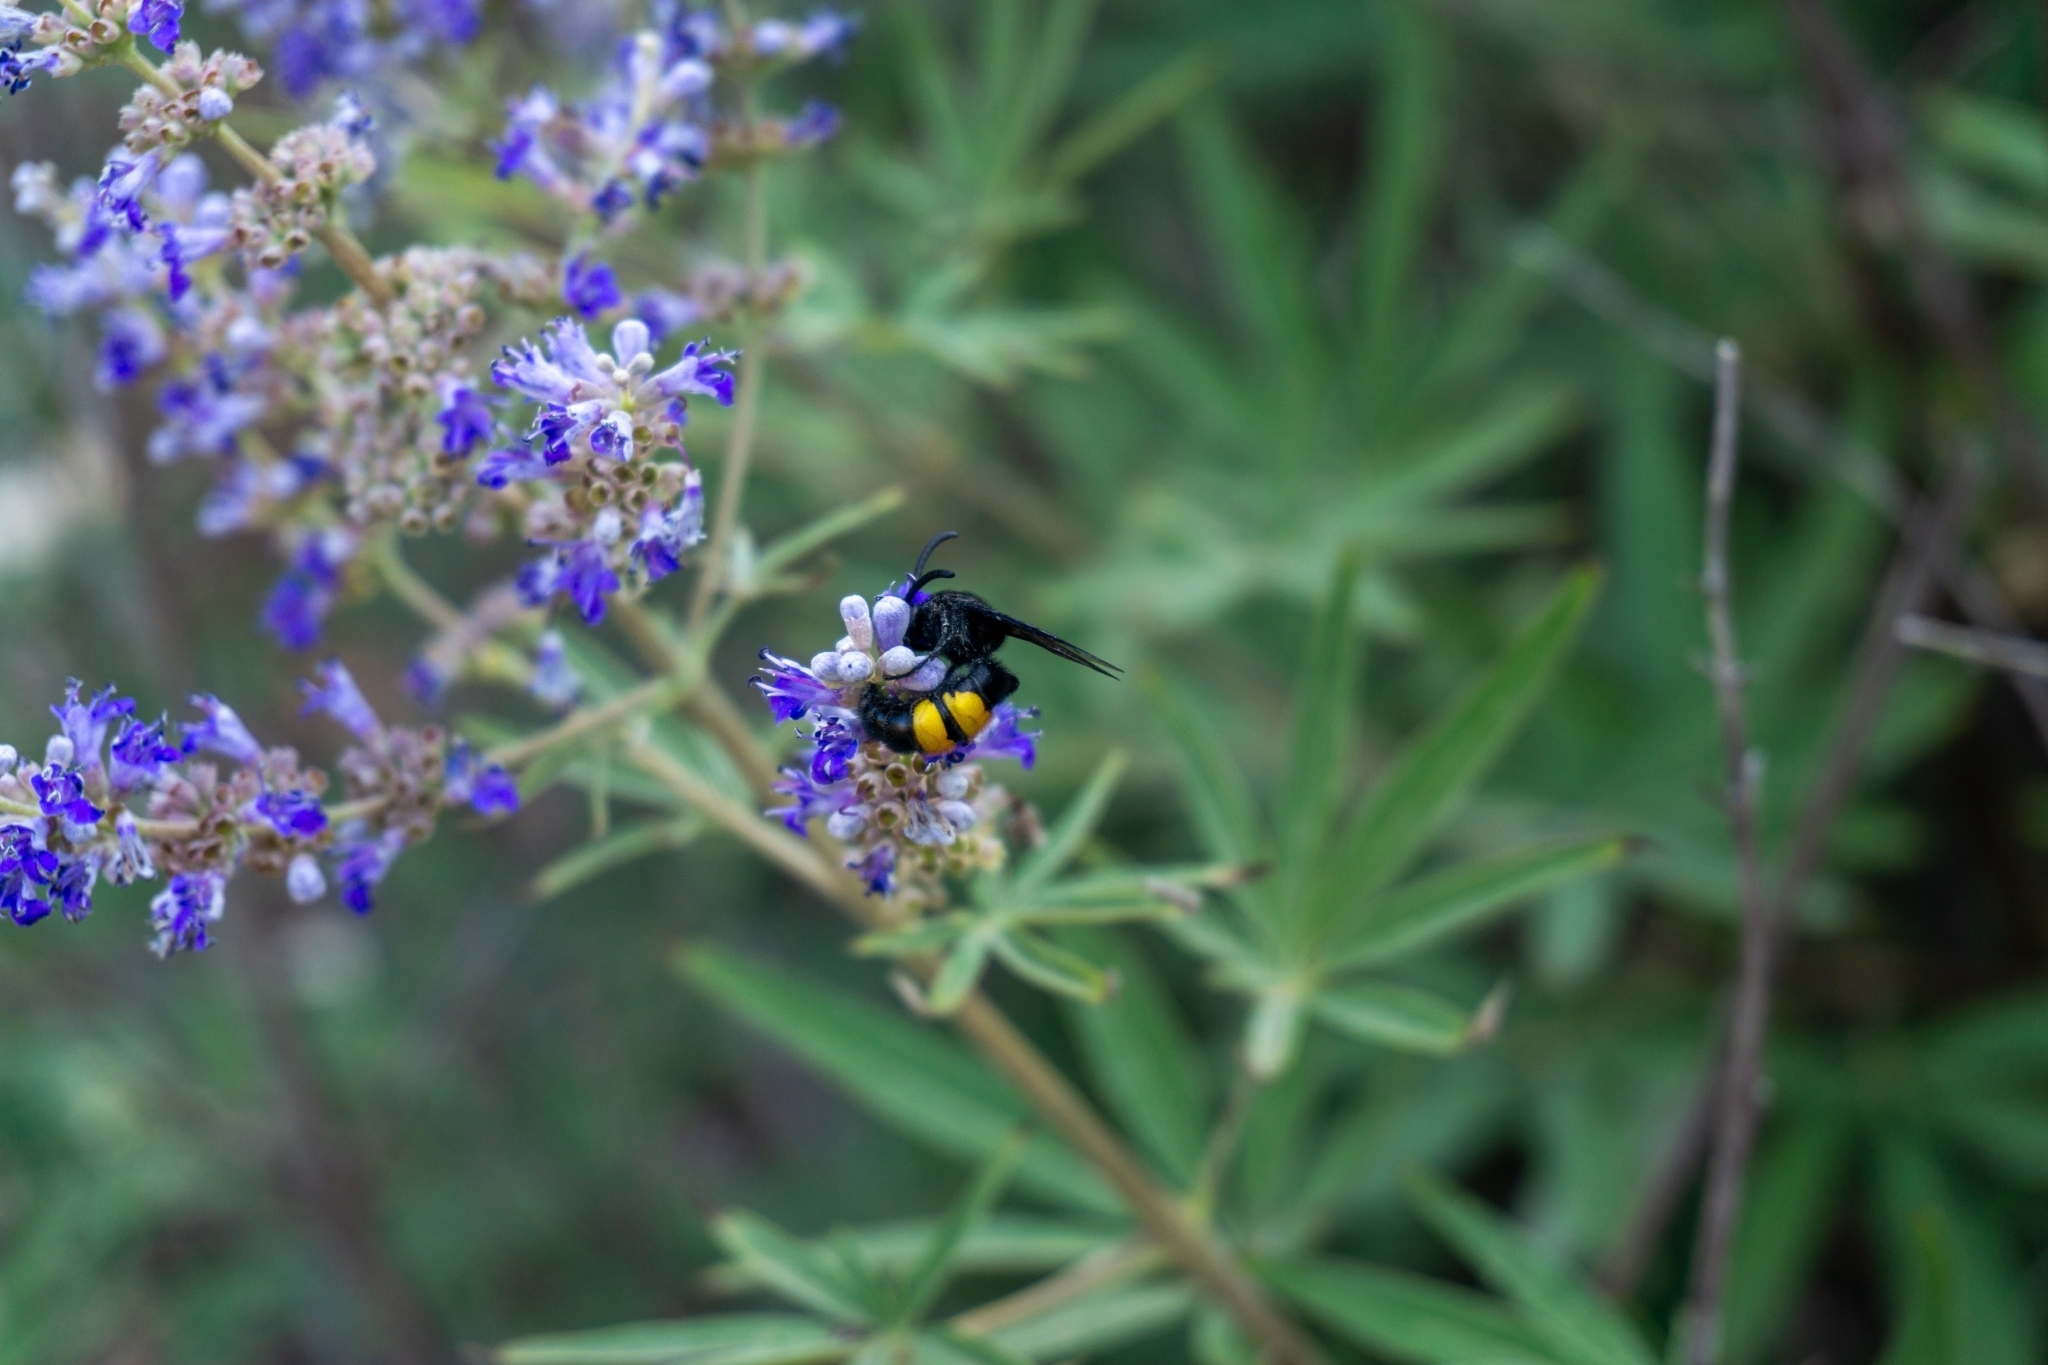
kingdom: Animalia
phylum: Arthropoda
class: Insecta
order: Hymenoptera
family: Scoliidae
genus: Scolia
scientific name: Scolia hirta
